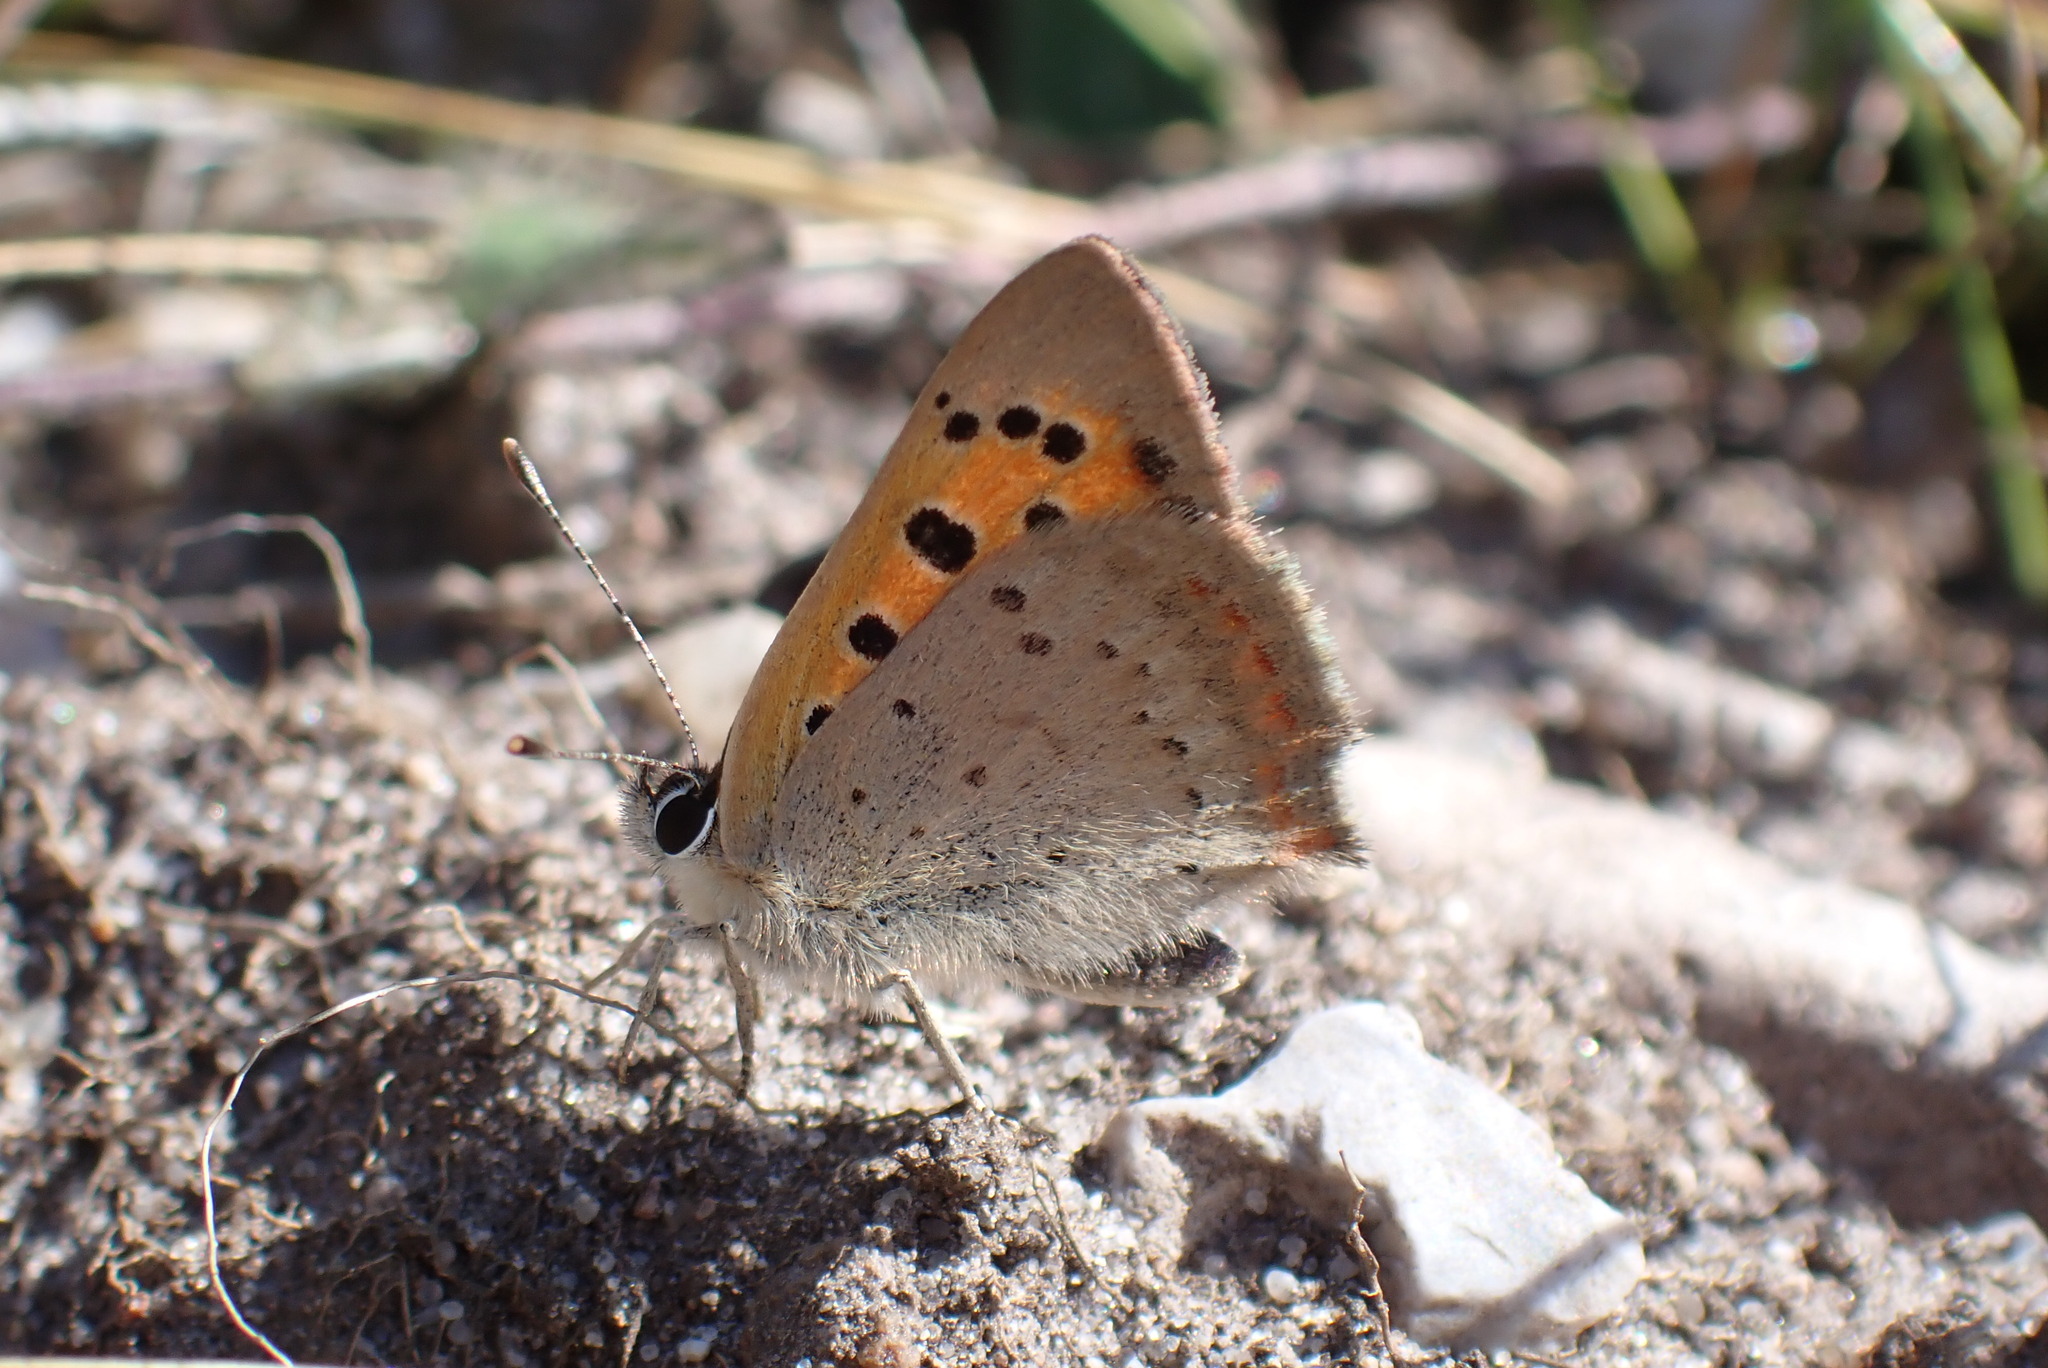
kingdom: Animalia
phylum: Arthropoda
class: Insecta
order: Lepidoptera
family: Lycaenidae
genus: Lycaena
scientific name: Lycaena phlaeas
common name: Small copper
